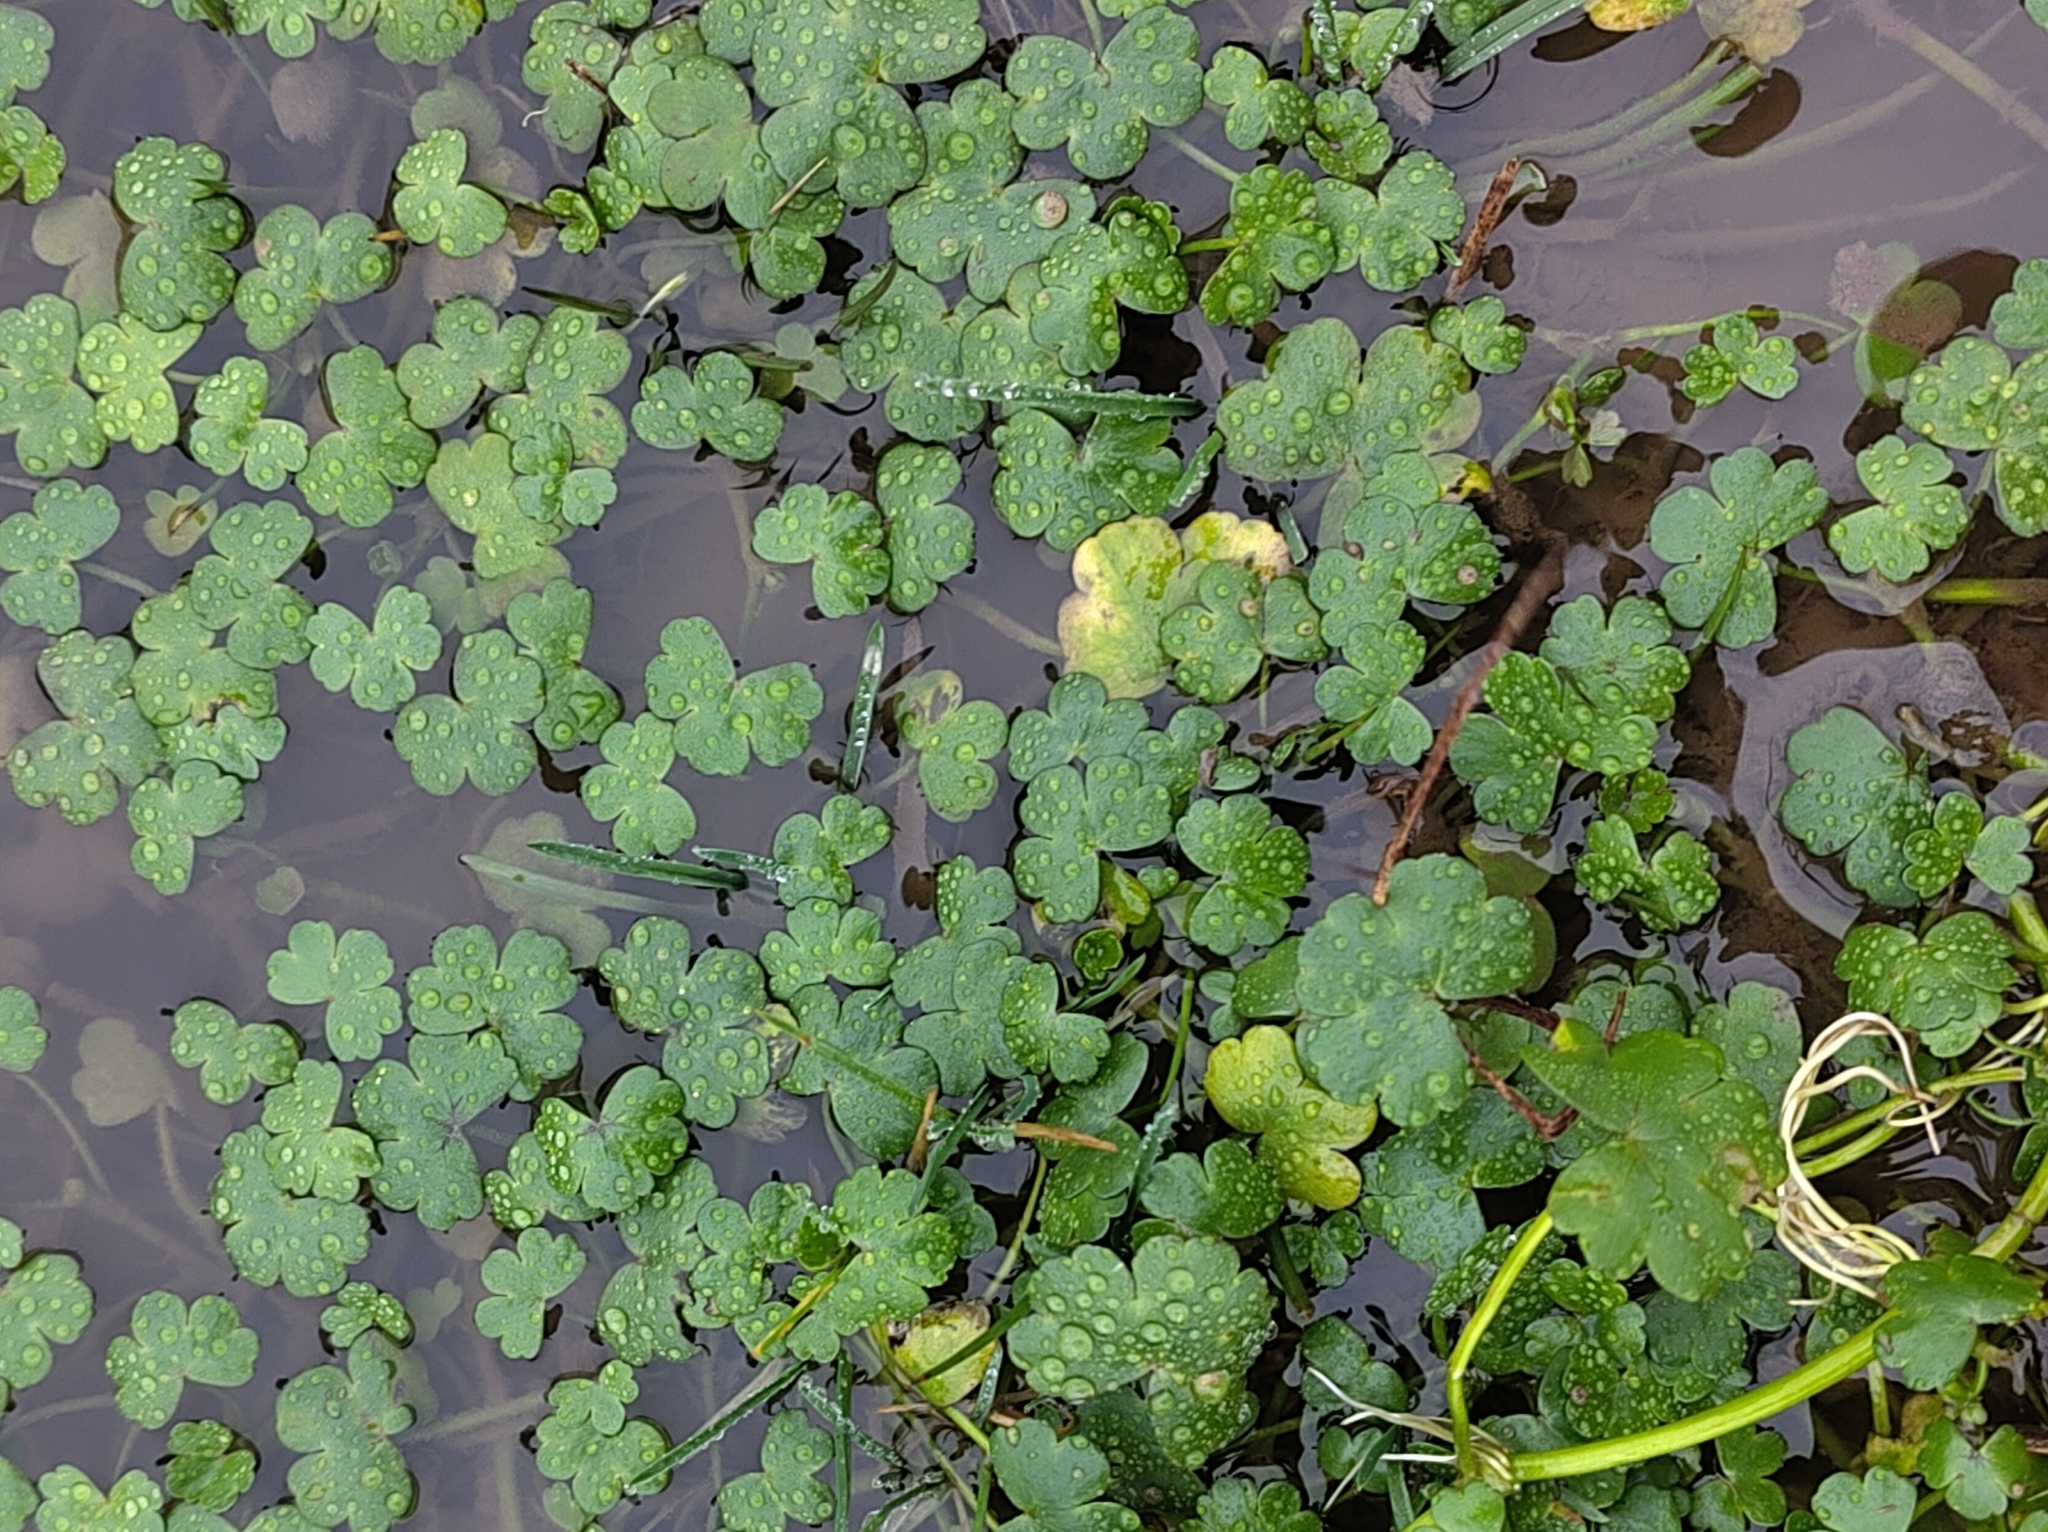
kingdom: Plantae
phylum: Tracheophyta
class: Magnoliopsida
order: Apiales
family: Araliaceae
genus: Hydrocotyle
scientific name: Hydrocotyle ranunculoides
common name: Floating pennywort
